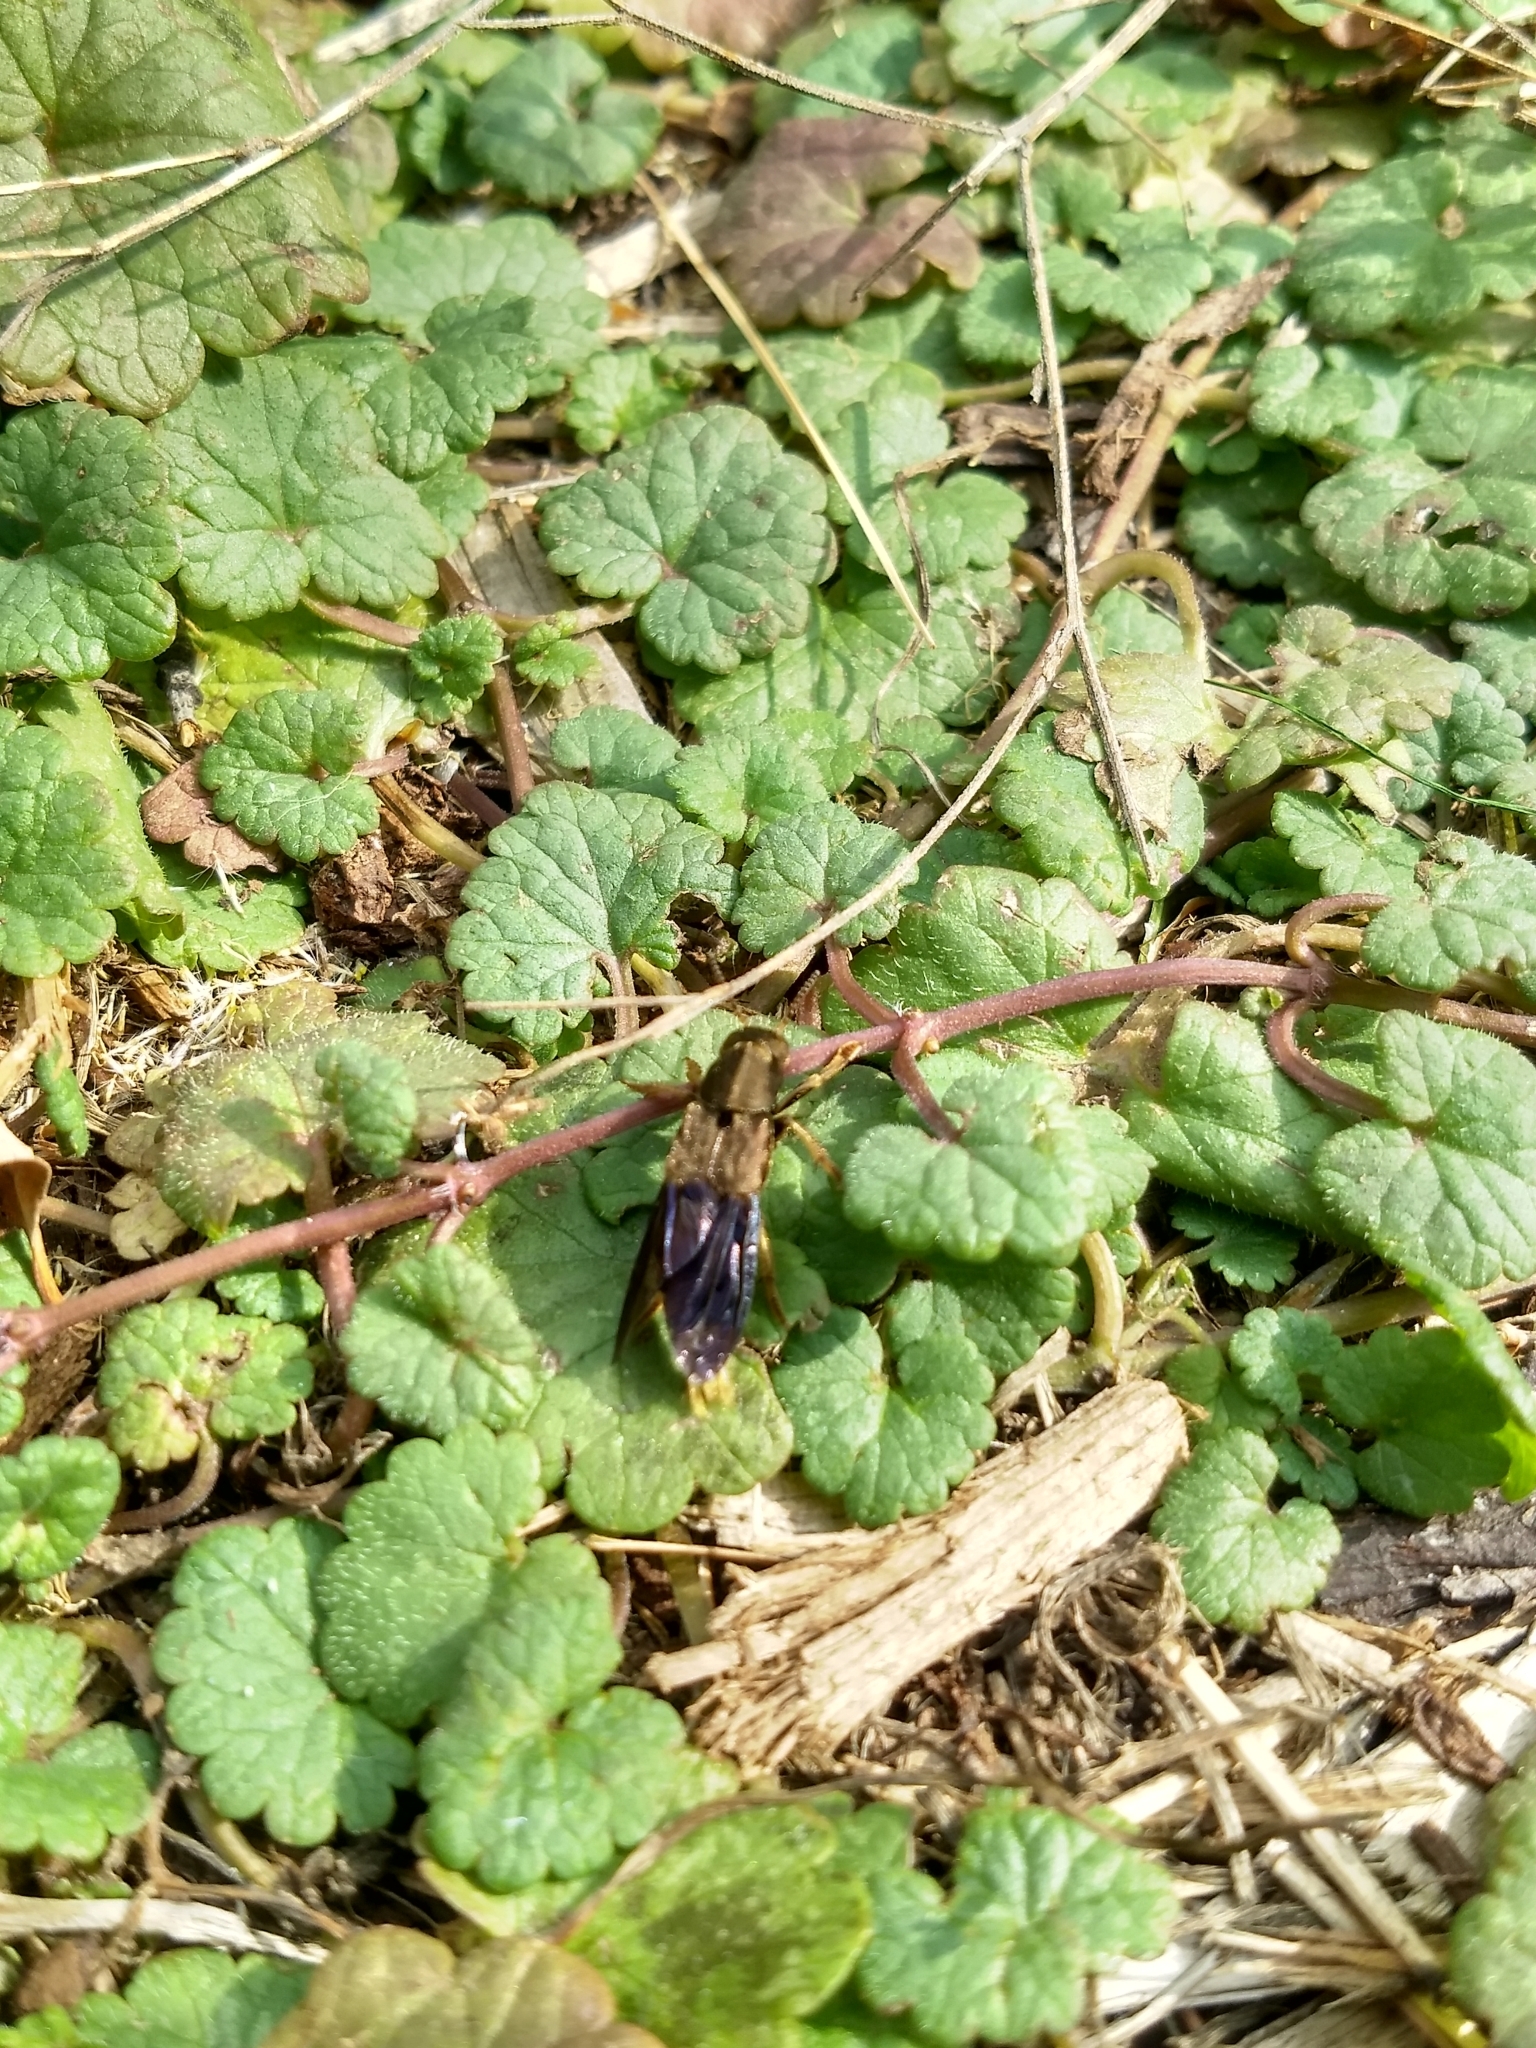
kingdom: Animalia
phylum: Arthropoda
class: Insecta
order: Coleoptera
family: Staphylinidae
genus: Platydracus
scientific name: Platydracus maculosus
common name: Brown rove beetle
